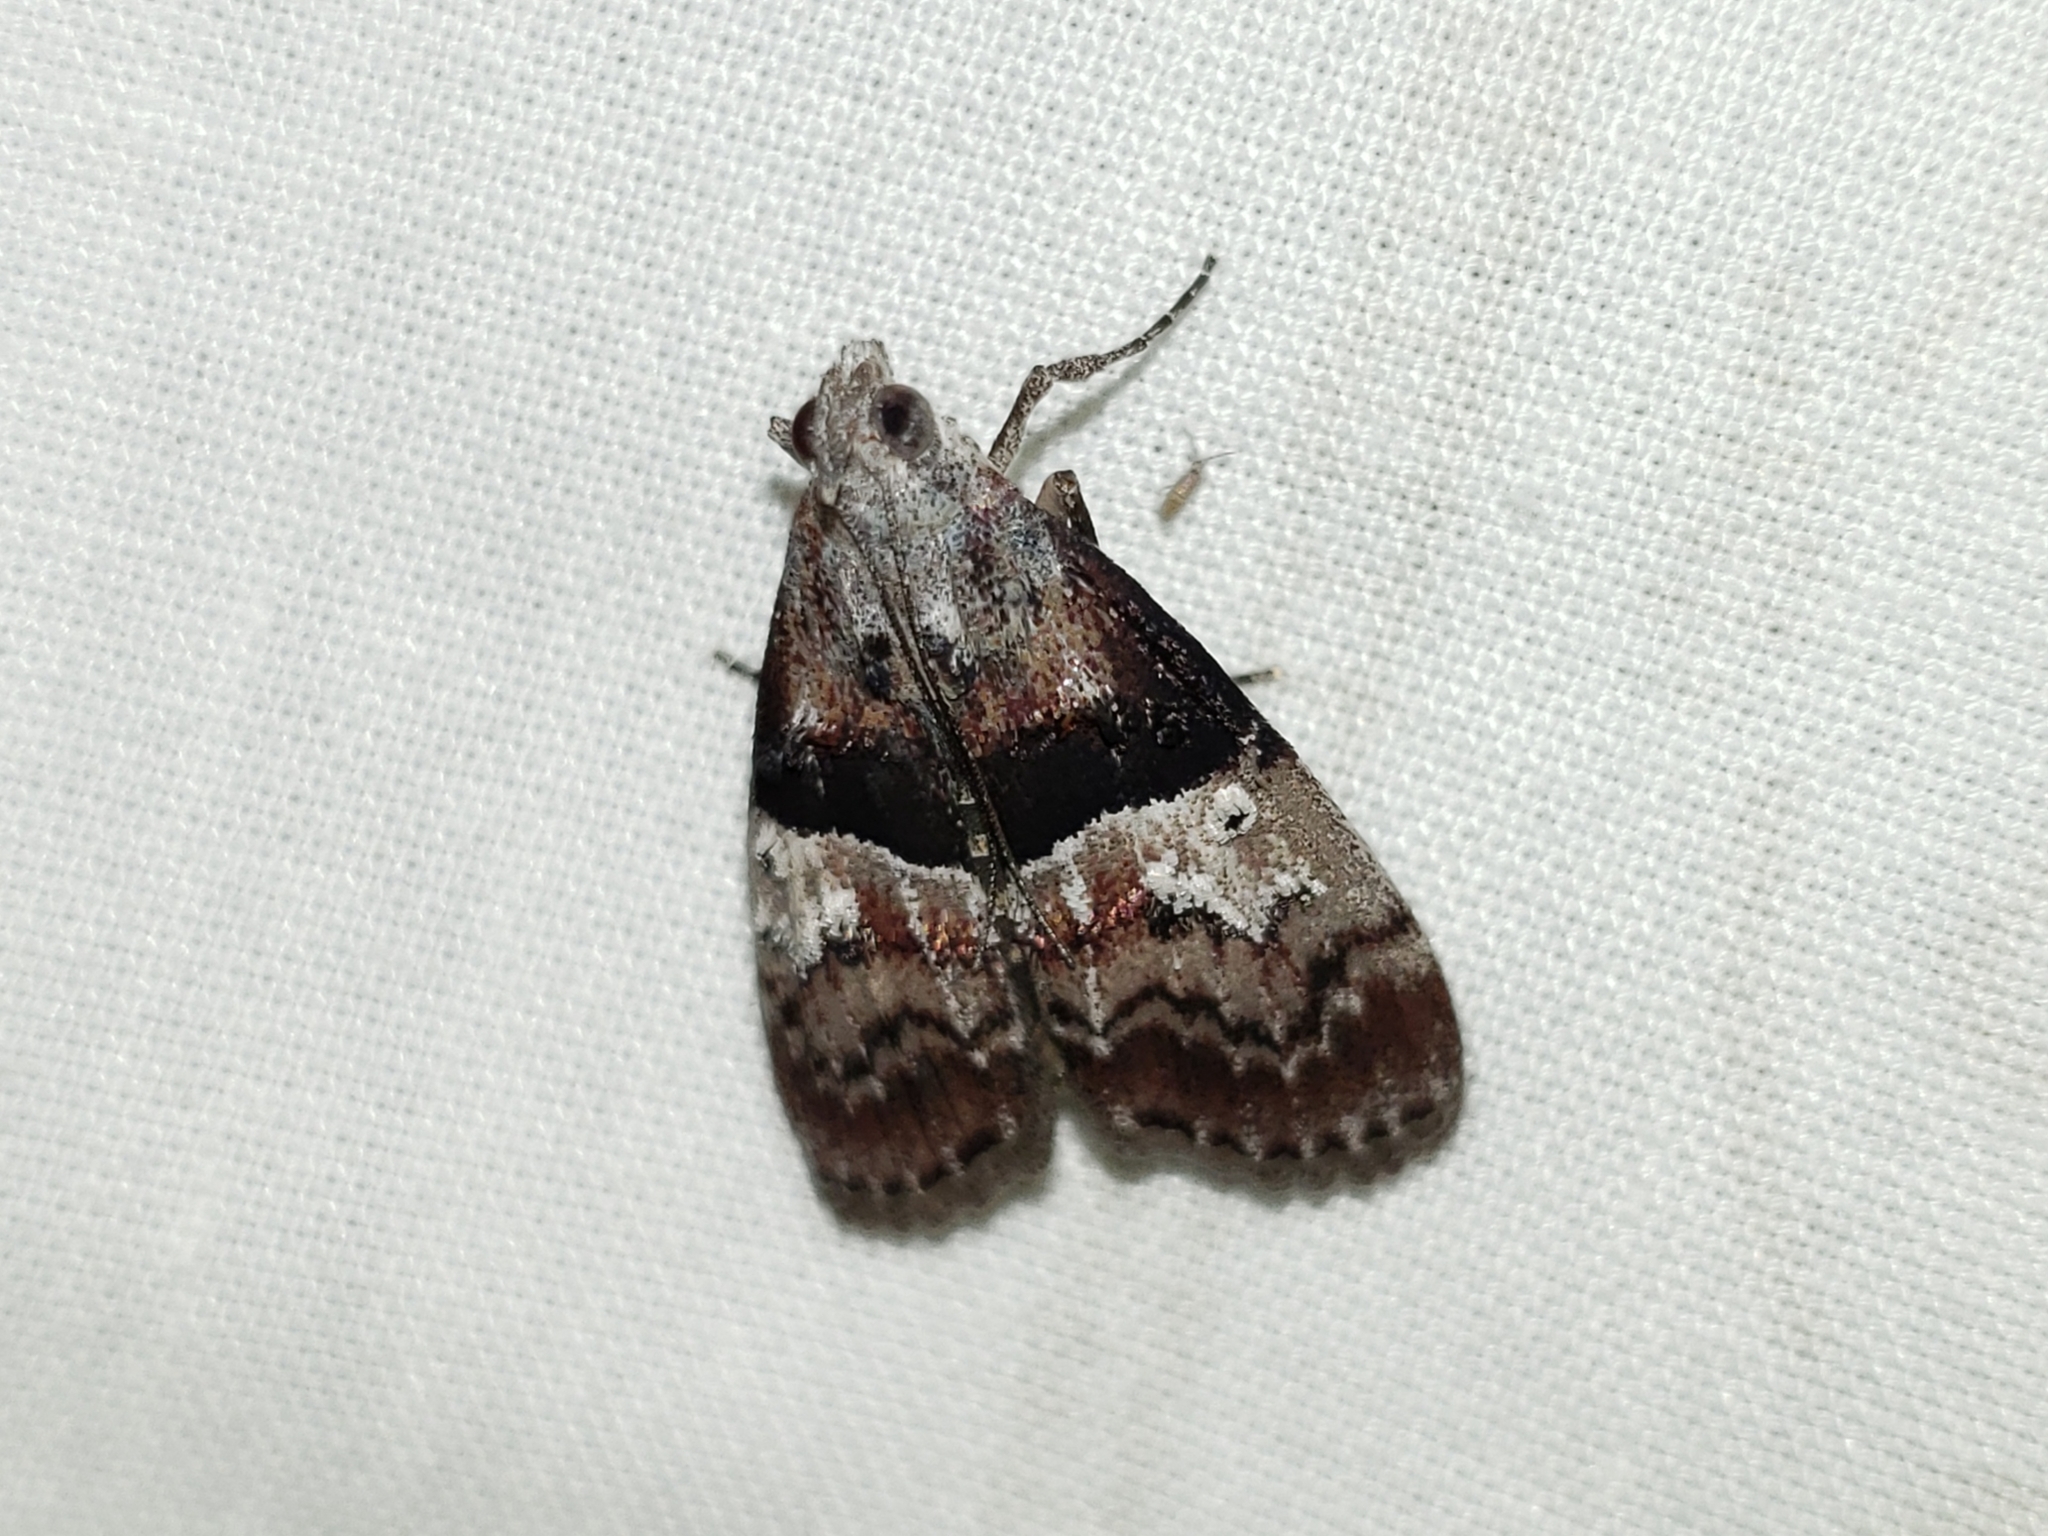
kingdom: Animalia
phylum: Arthropoda
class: Insecta
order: Lepidoptera
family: Pyralidae
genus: Pococera
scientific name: Pococera robustella
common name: Pine webworm moth
